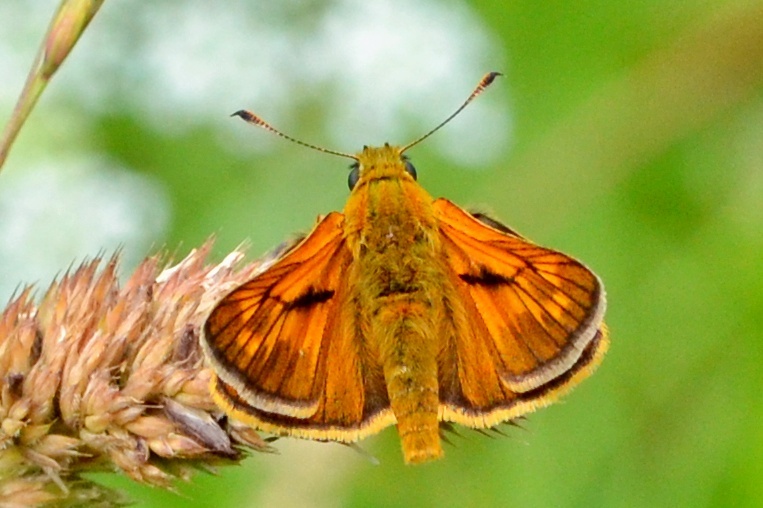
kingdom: Animalia
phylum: Arthropoda
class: Insecta
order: Lepidoptera
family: Hesperiidae
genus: Ochlodes
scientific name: Ochlodes venata
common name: Large skipper
